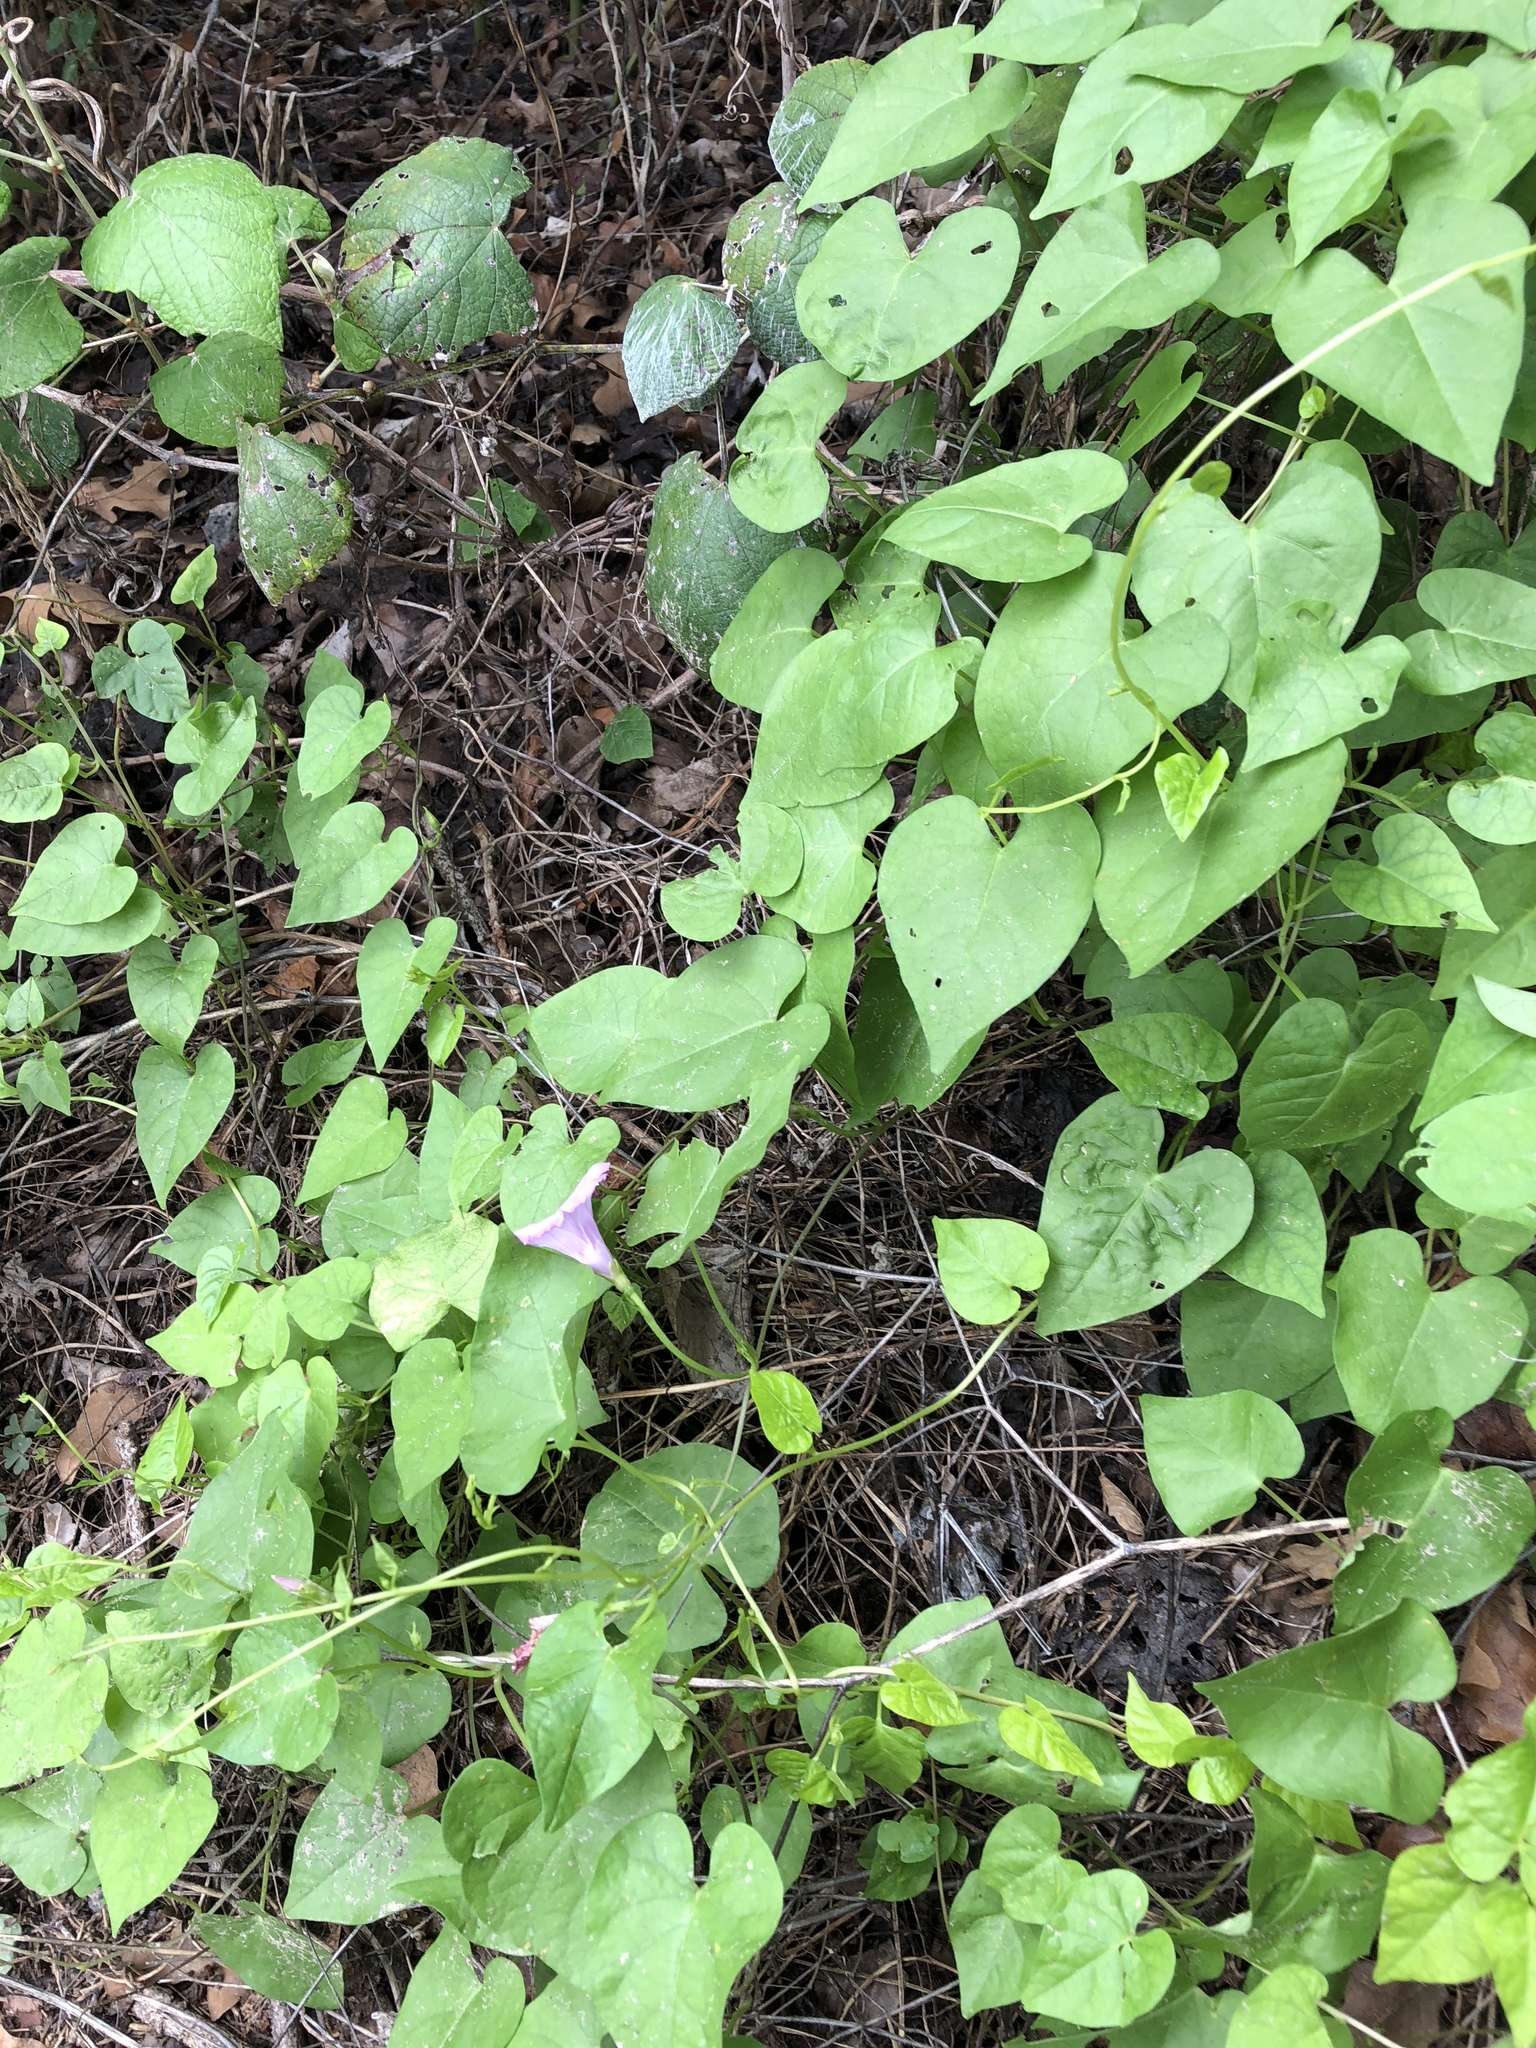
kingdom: Plantae
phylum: Tracheophyta
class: Magnoliopsida
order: Solanales
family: Convolvulaceae
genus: Ipomoea
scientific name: Ipomoea cordatotriloba
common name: Cotton morning glory
